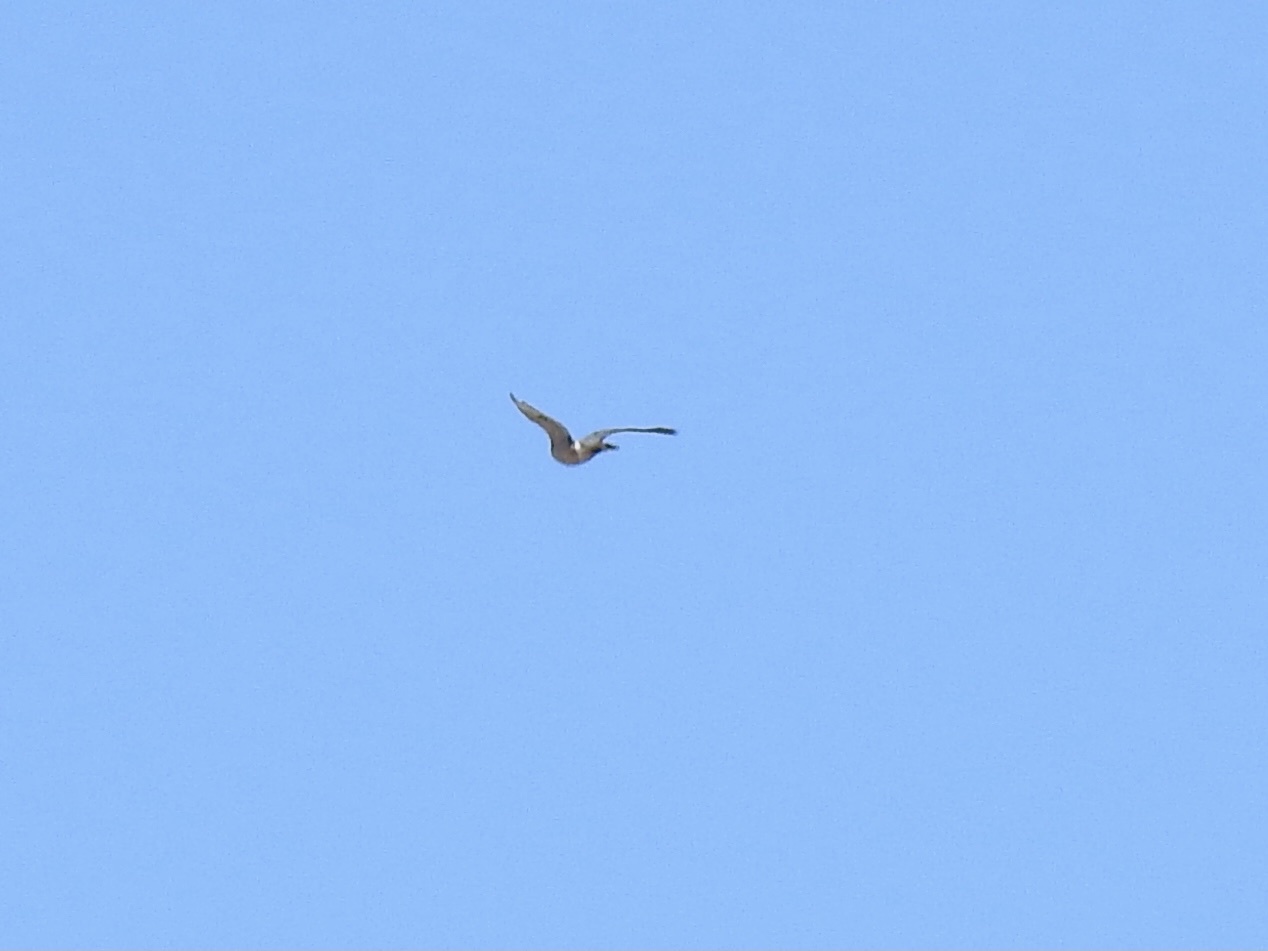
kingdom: Animalia
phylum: Chordata
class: Aves
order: Accipitriformes
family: Accipitridae
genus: Accipiter
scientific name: Accipiter cooperii
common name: Cooper's hawk
